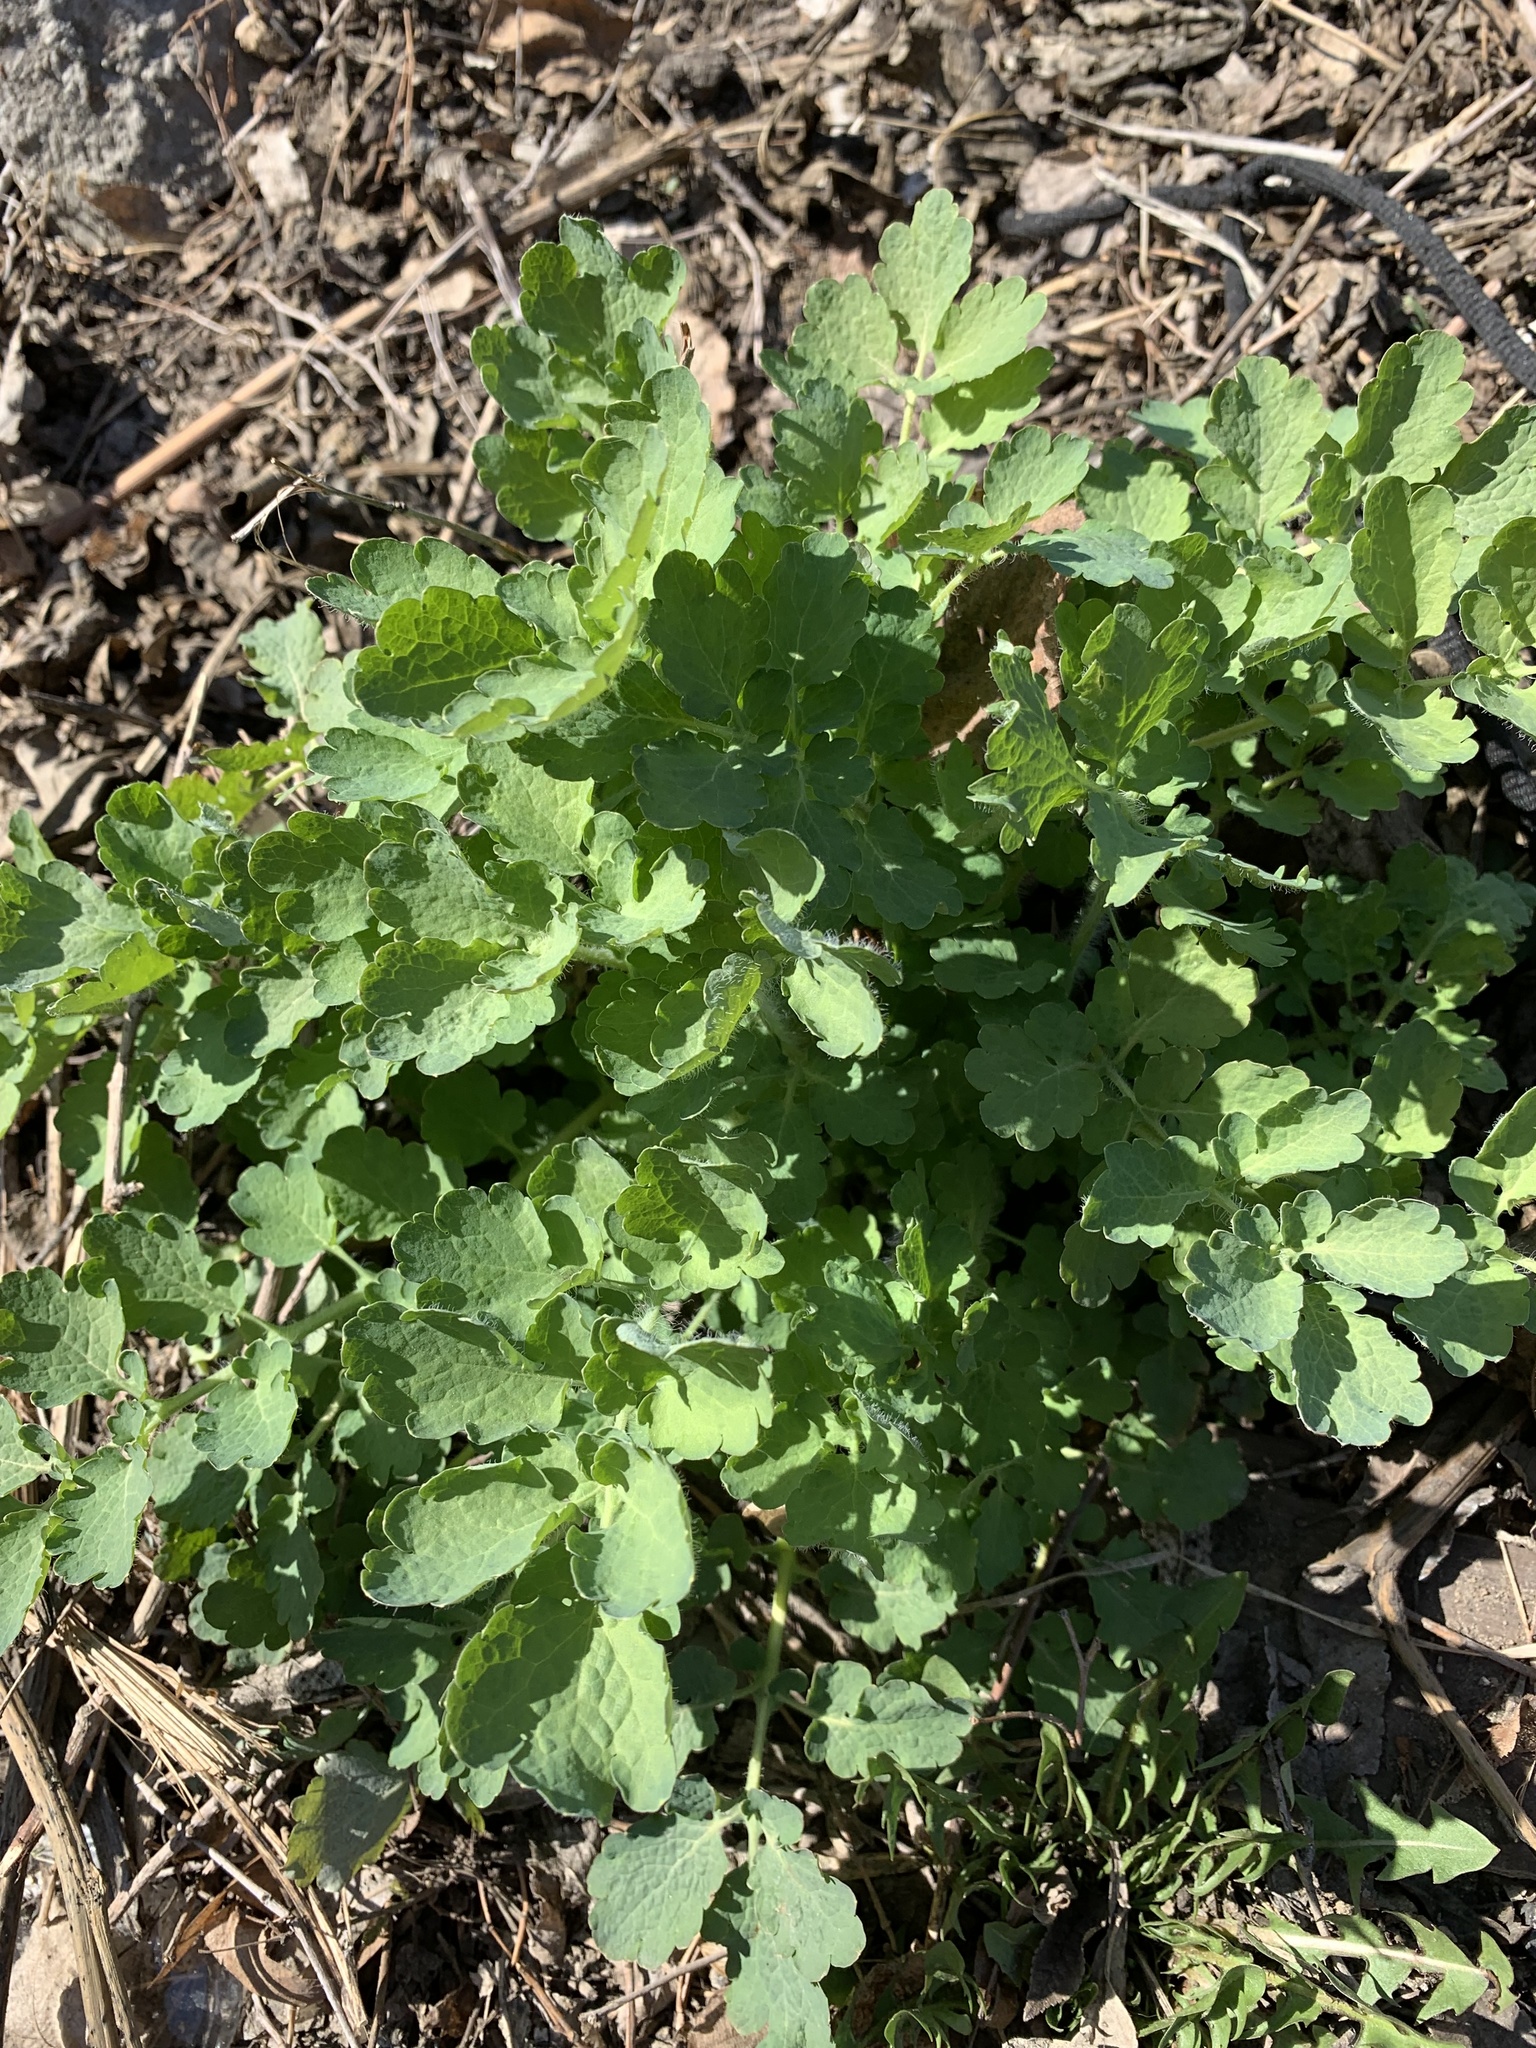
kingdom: Plantae
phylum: Tracheophyta
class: Magnoliopsida
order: Ranunculales
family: Papaveraceae
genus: Chelidonium
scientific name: Chelidonium majus
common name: Greater celandine
